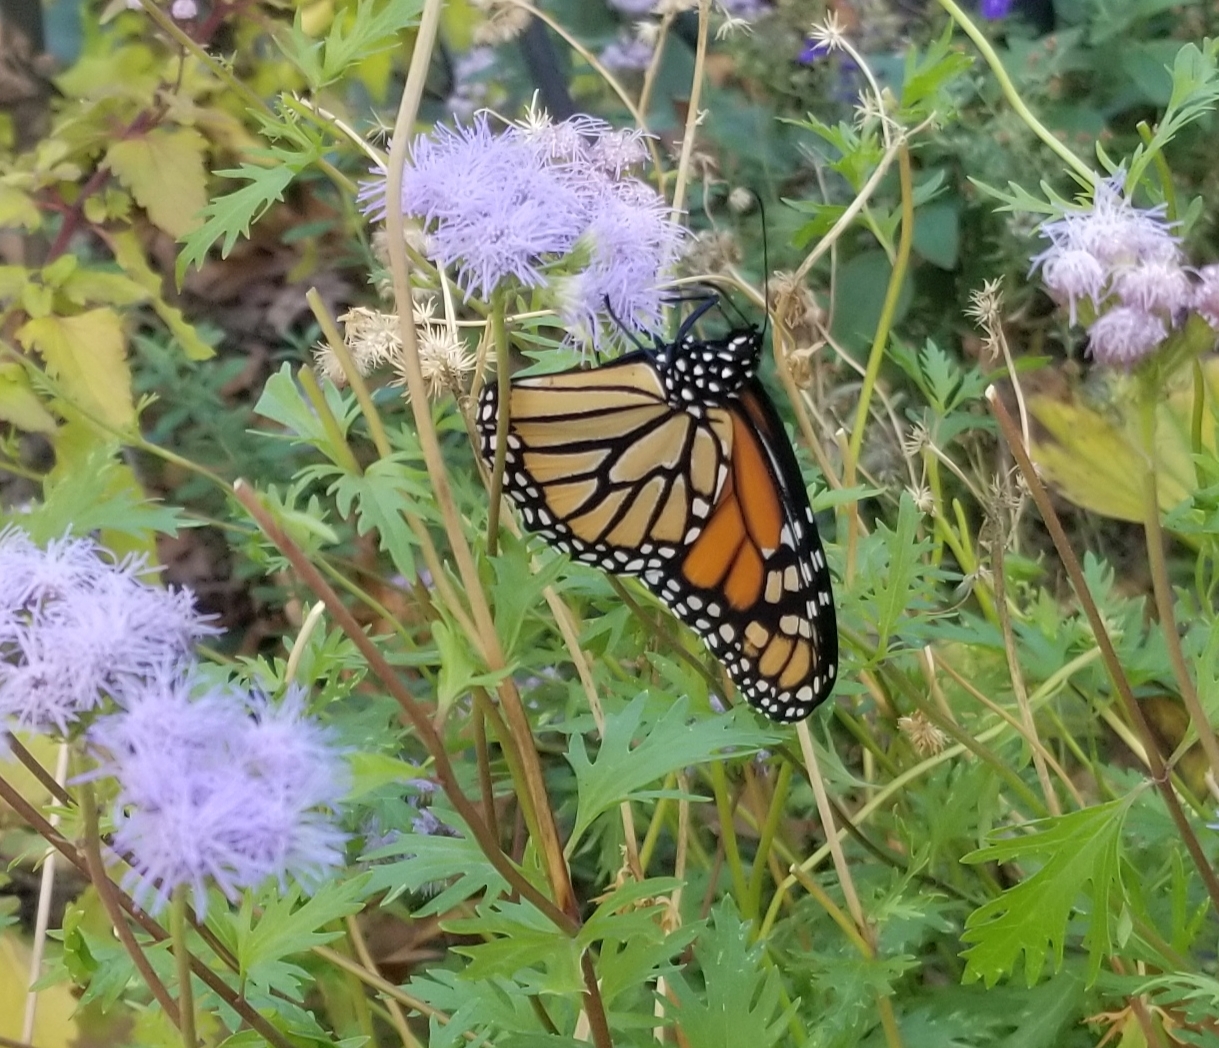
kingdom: Animalia
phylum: Arthropoda
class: Insecta
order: Lepidoptera
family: Nymphalidae
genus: Danaus
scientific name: Danaus plexippus
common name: Monarch
